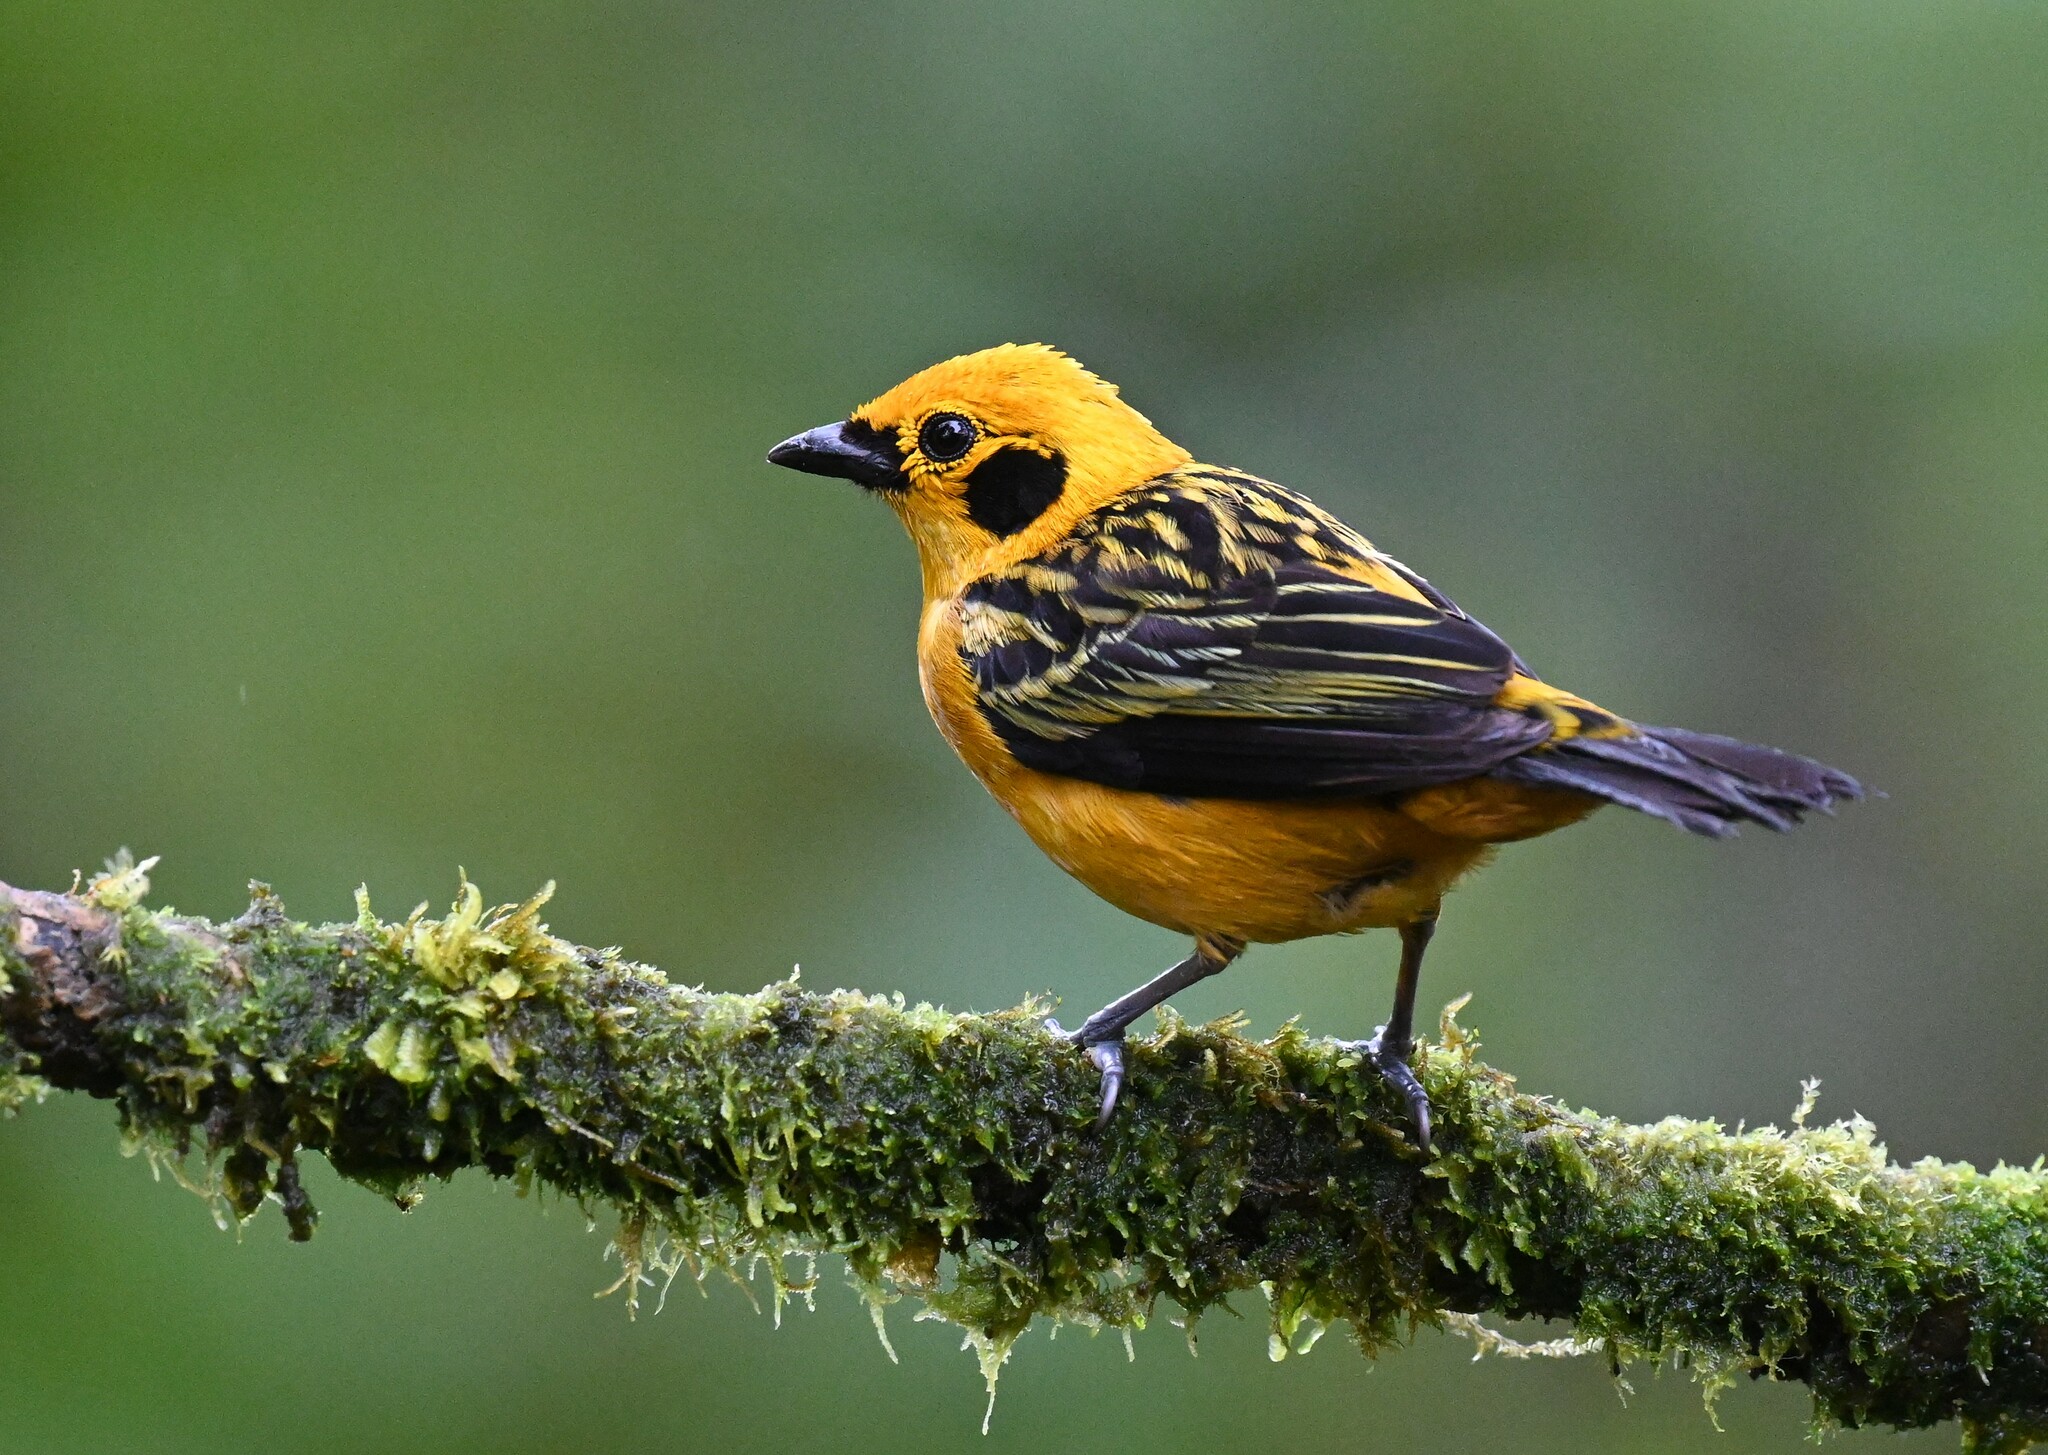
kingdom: Animalia
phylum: Chordata
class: Aves
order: Passeriformes
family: Thraupidae
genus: Tangara
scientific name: Tangara arthus
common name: Golden tanager
